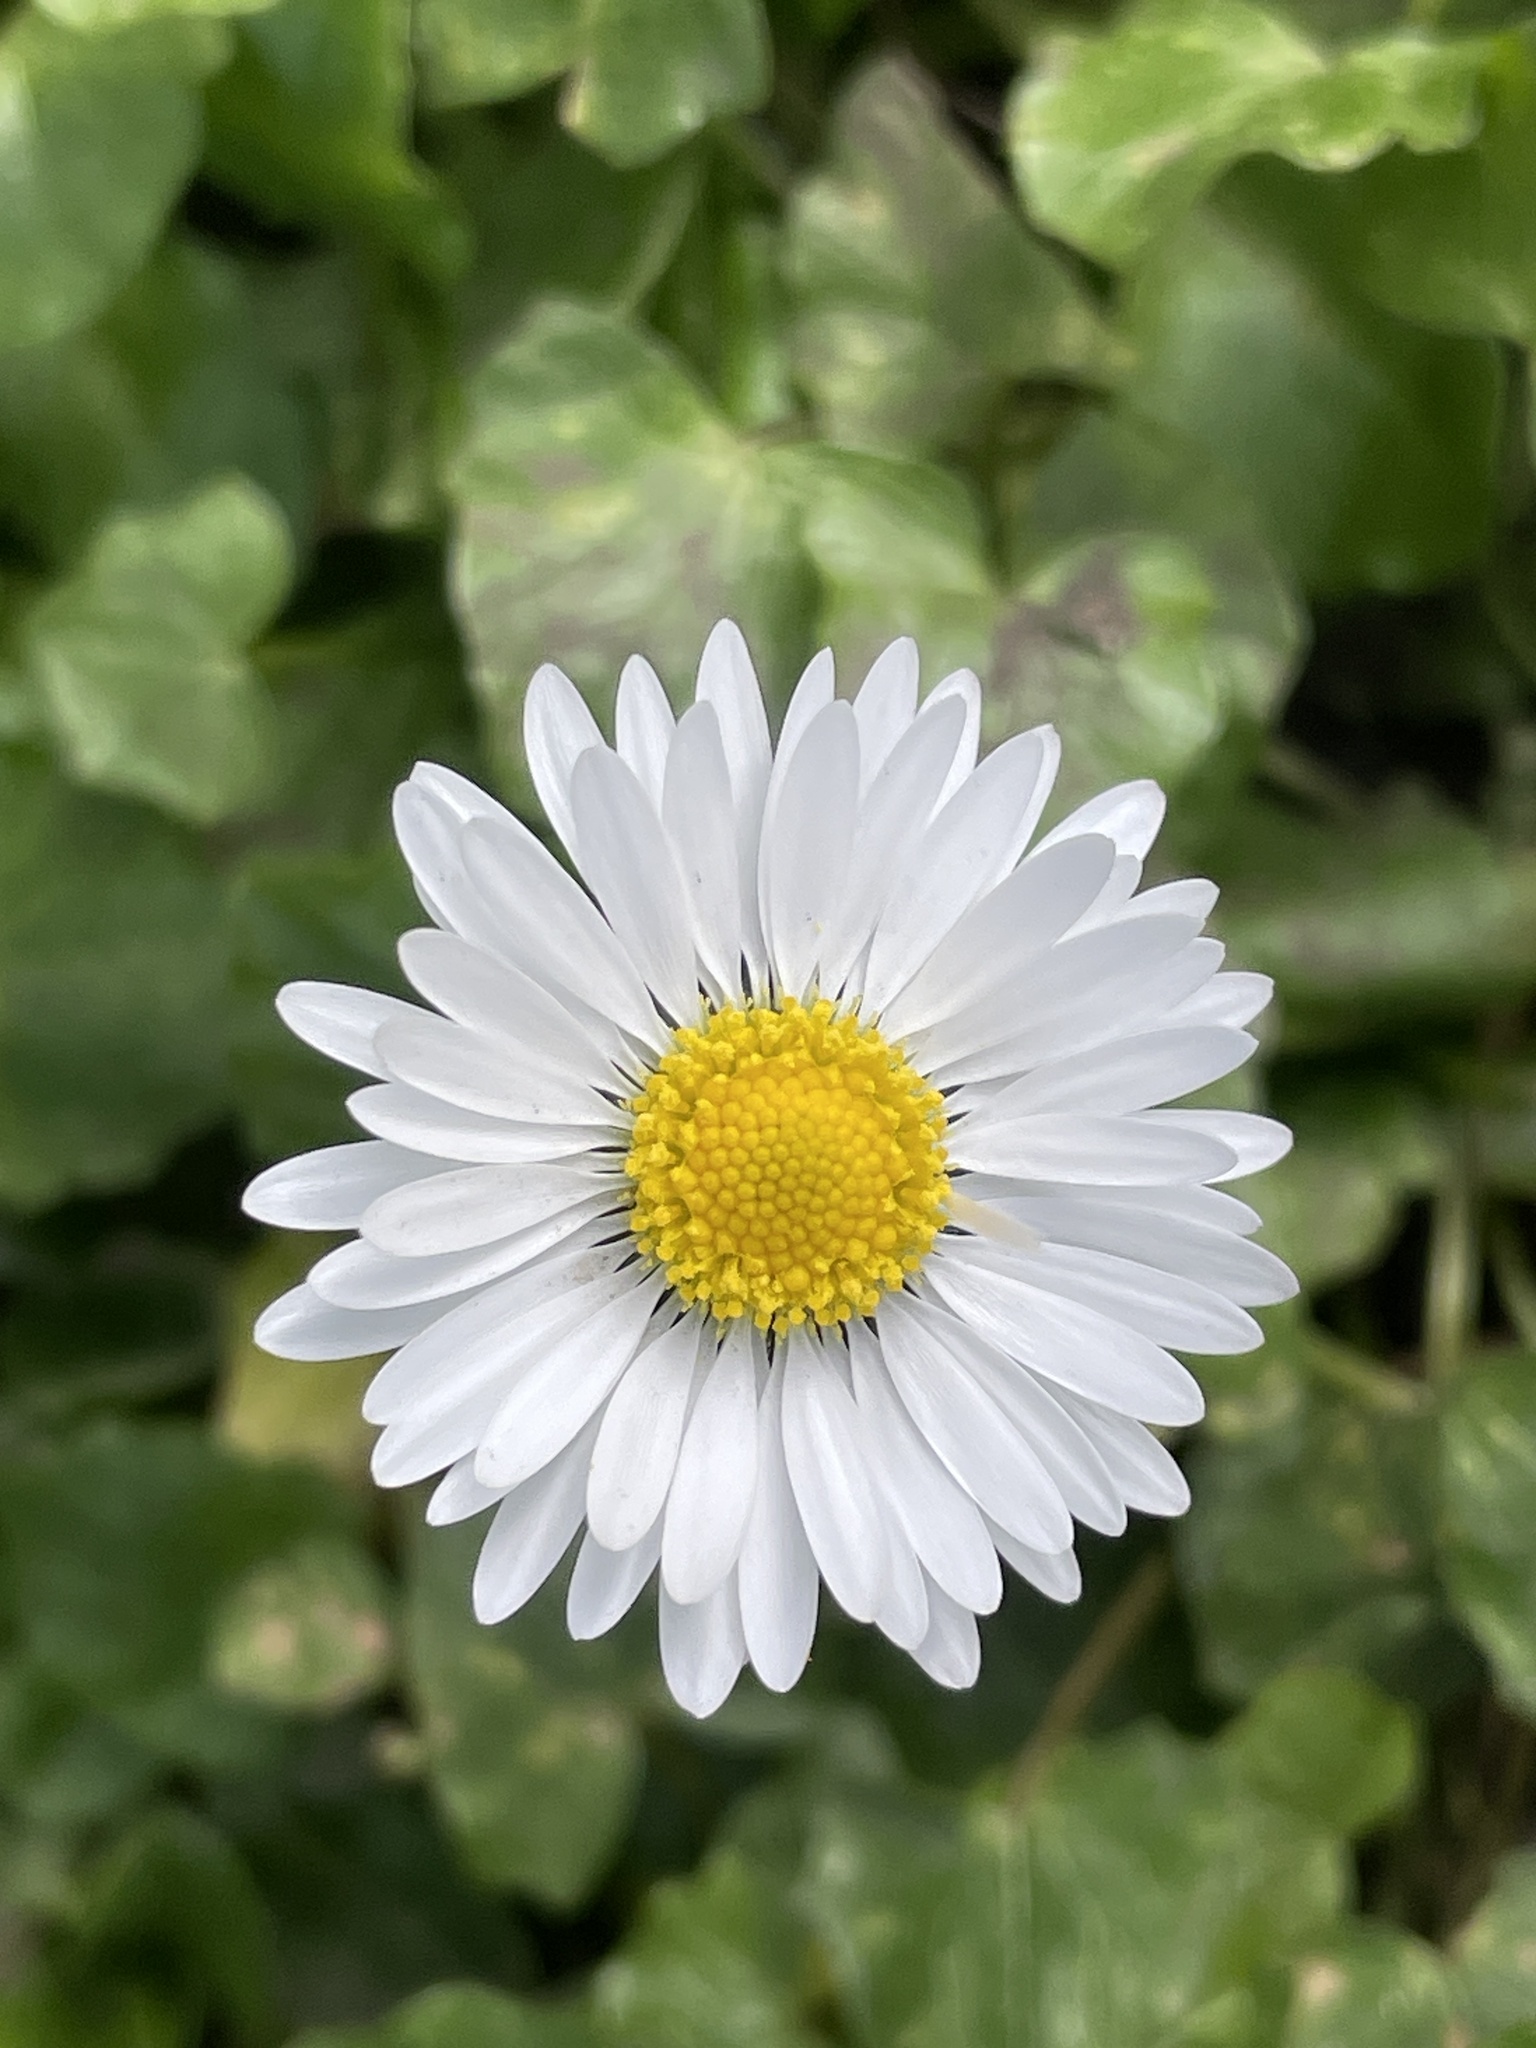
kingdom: Plantae
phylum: Tracheophyta
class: Magnoliopsida
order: Asterales
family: Asteraceae
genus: Bellis
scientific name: Bellis perennis
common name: Lawndaisy
